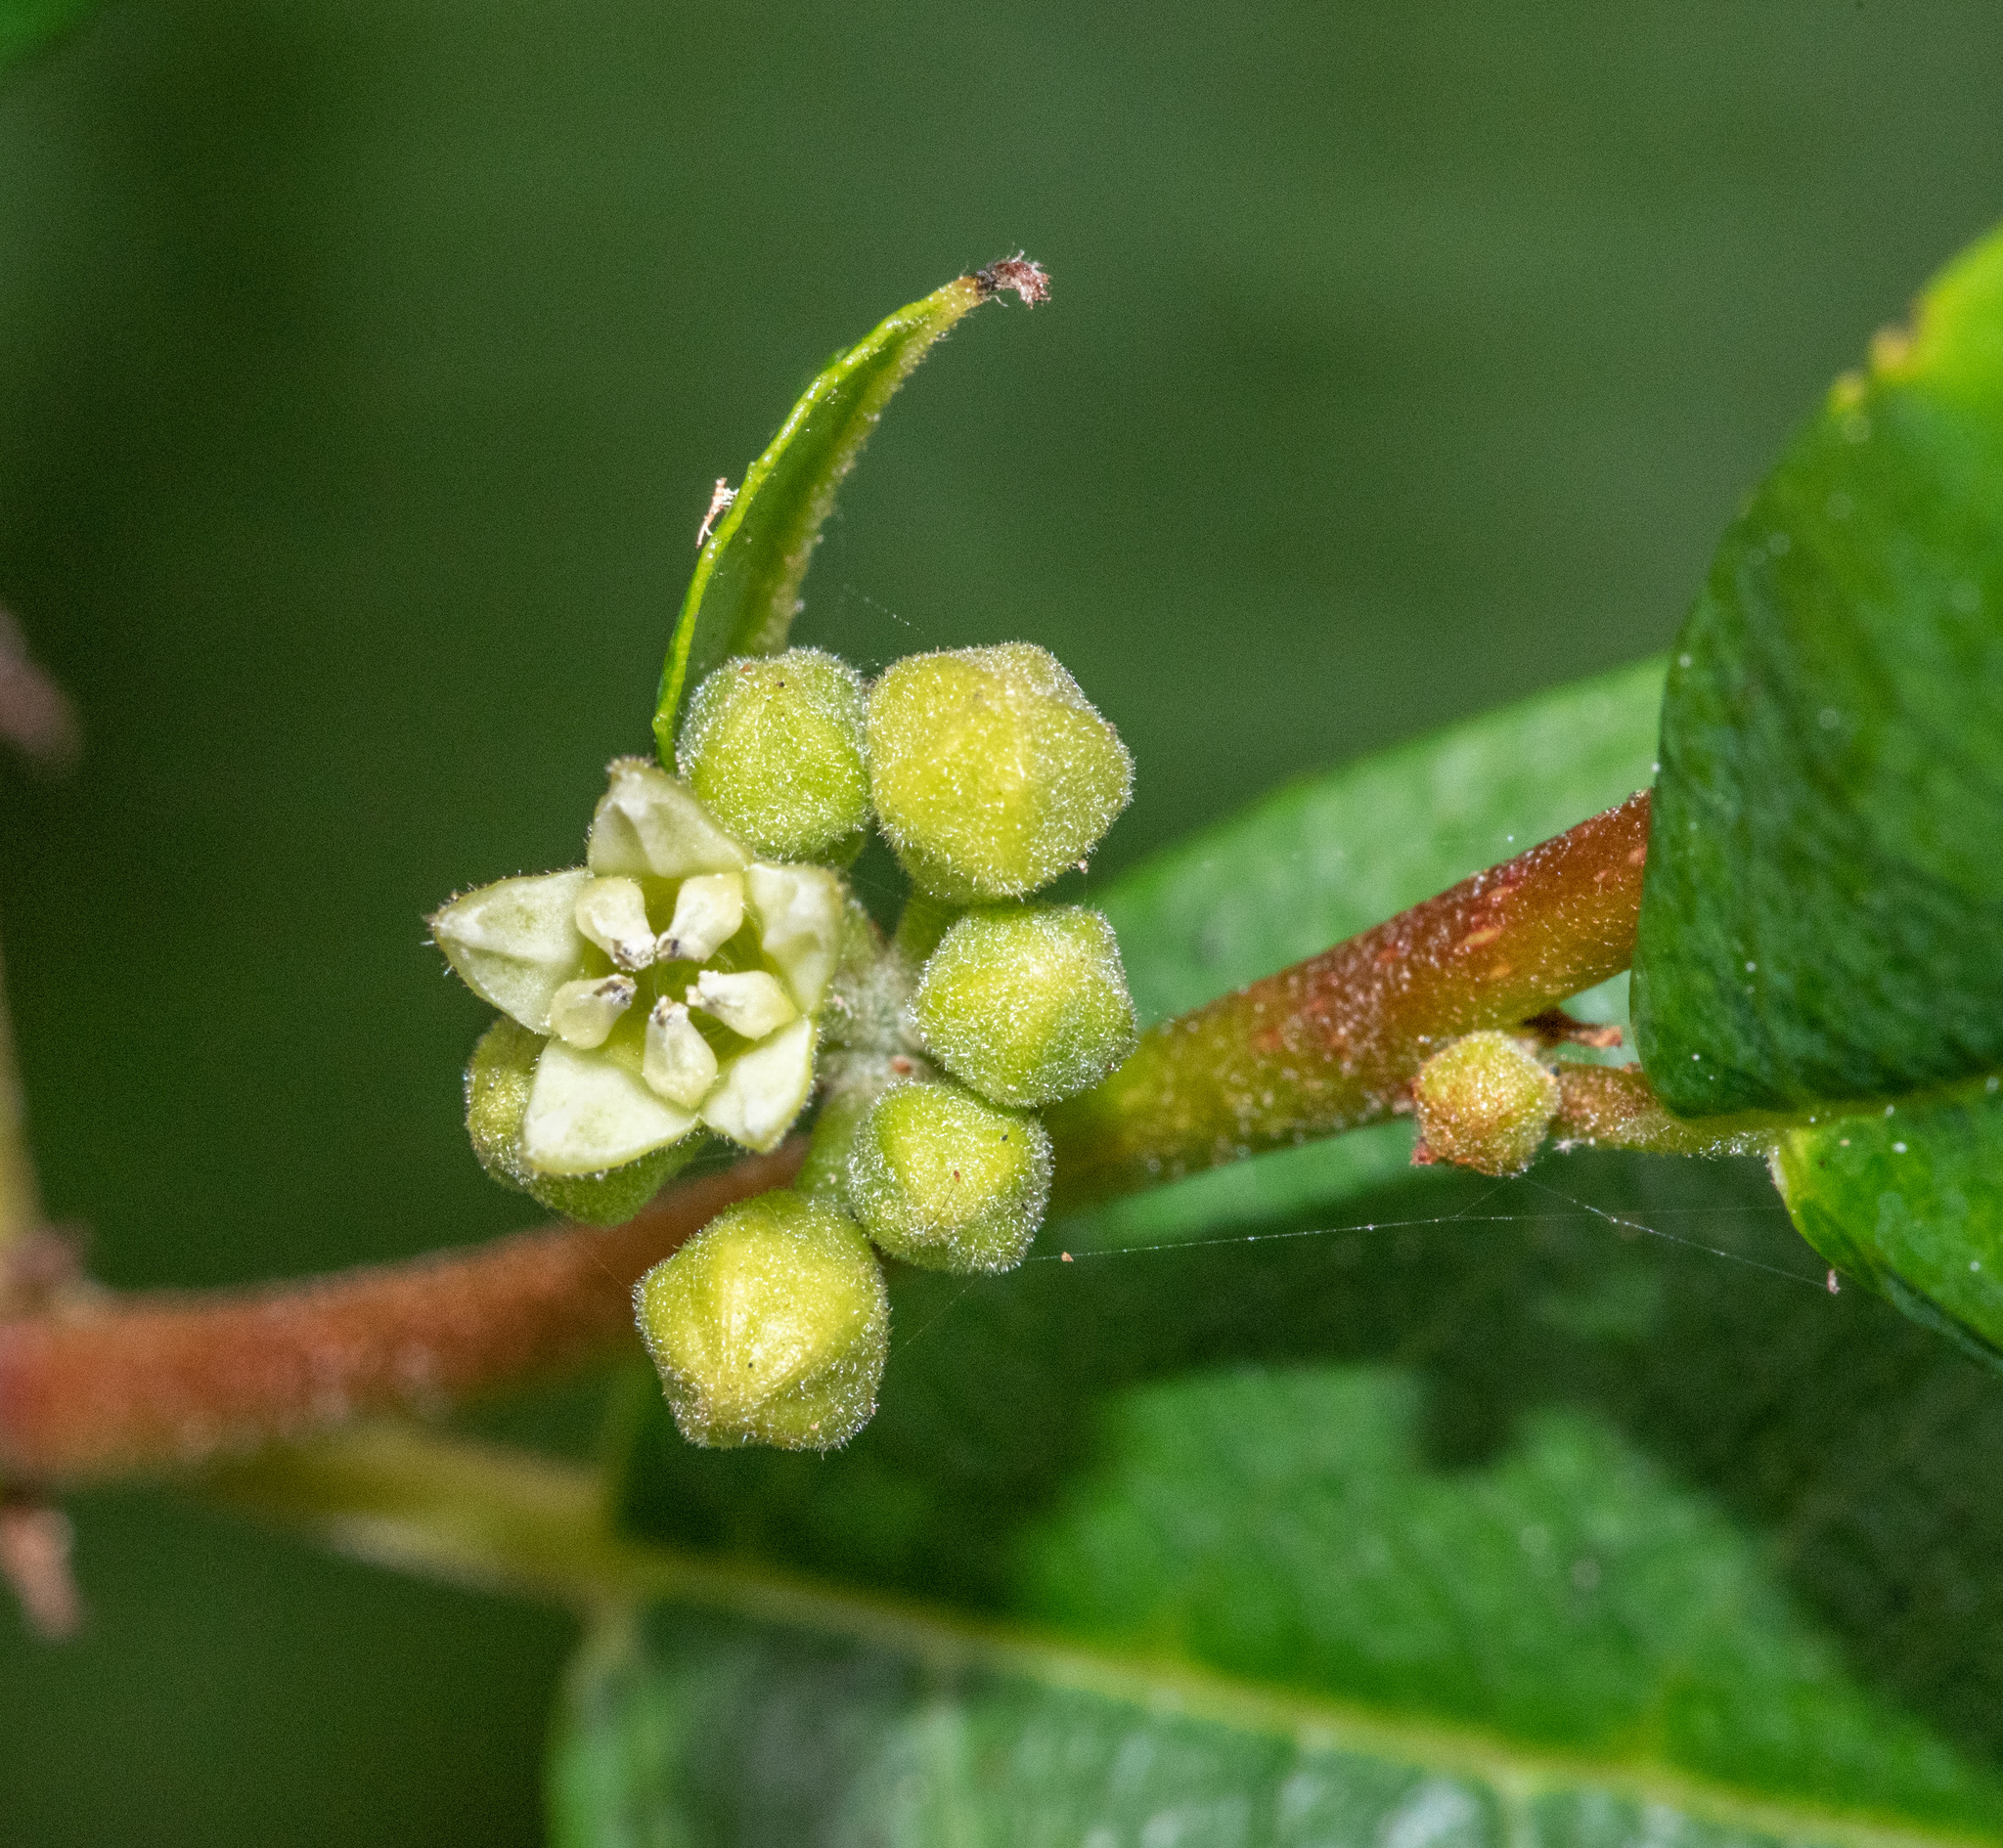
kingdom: Plantae
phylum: Tracheophyta
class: Magnoliopsida
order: Rosales
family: Rhamnaceae
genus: Frangula
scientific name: Frangula californica
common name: California buckthorn
